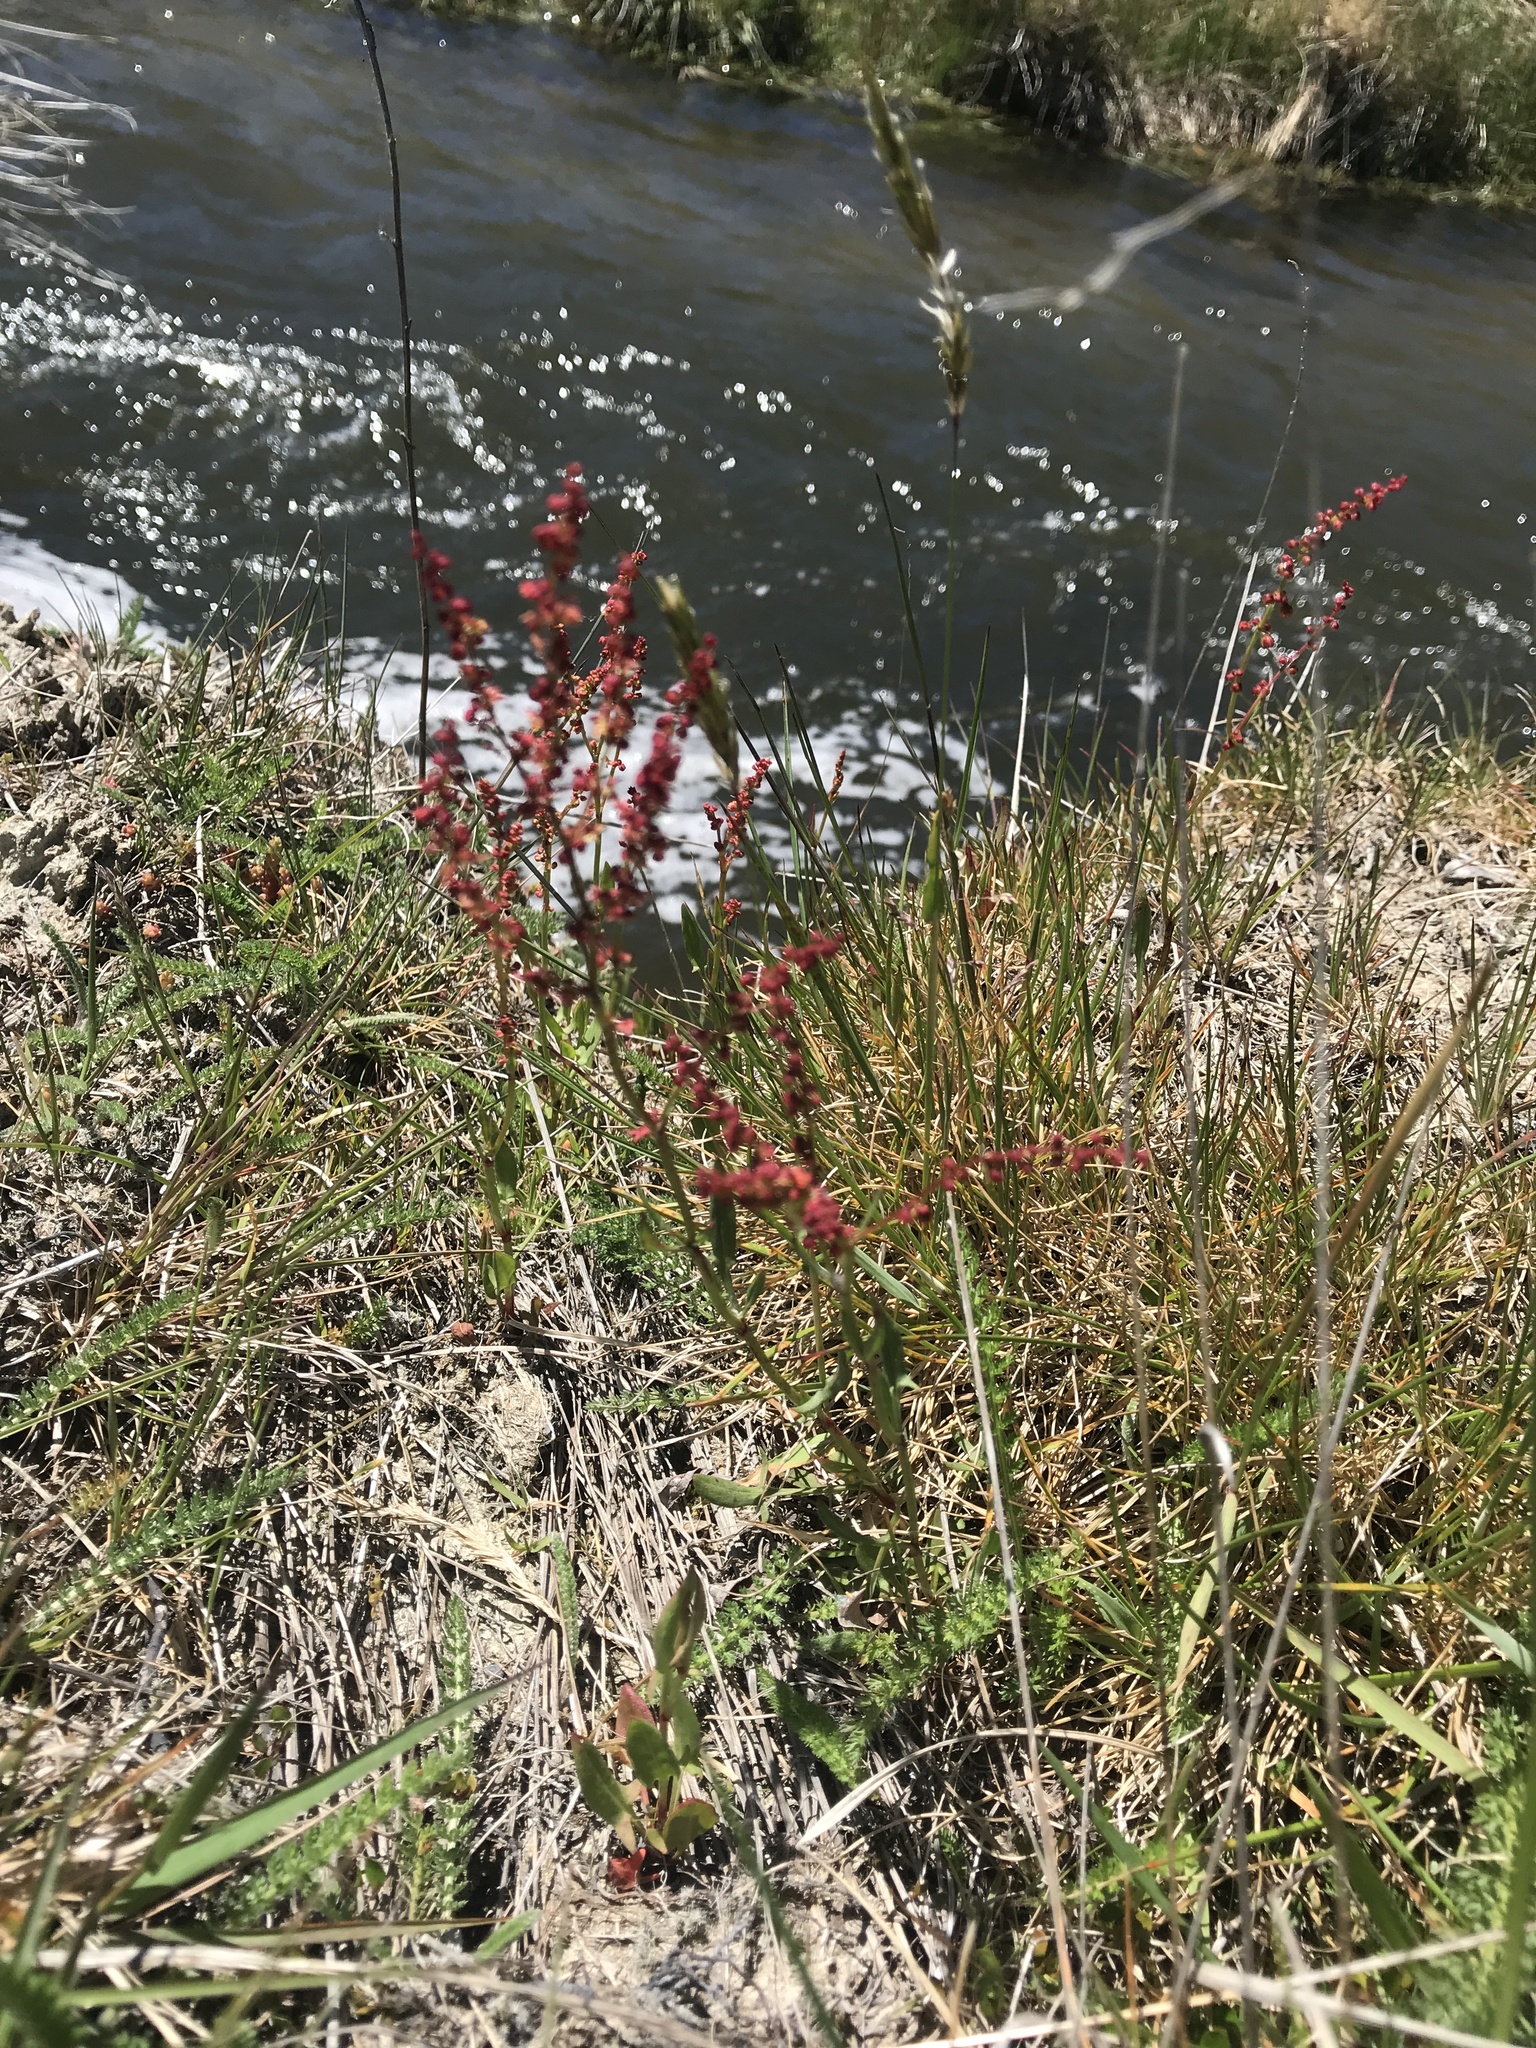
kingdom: Plantae
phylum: Tracheophyta
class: Magnoliopsida
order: Caryophyllales
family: Polygonaceae
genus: Rumex
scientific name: Rumex acetosella
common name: Common sheep sorrel
